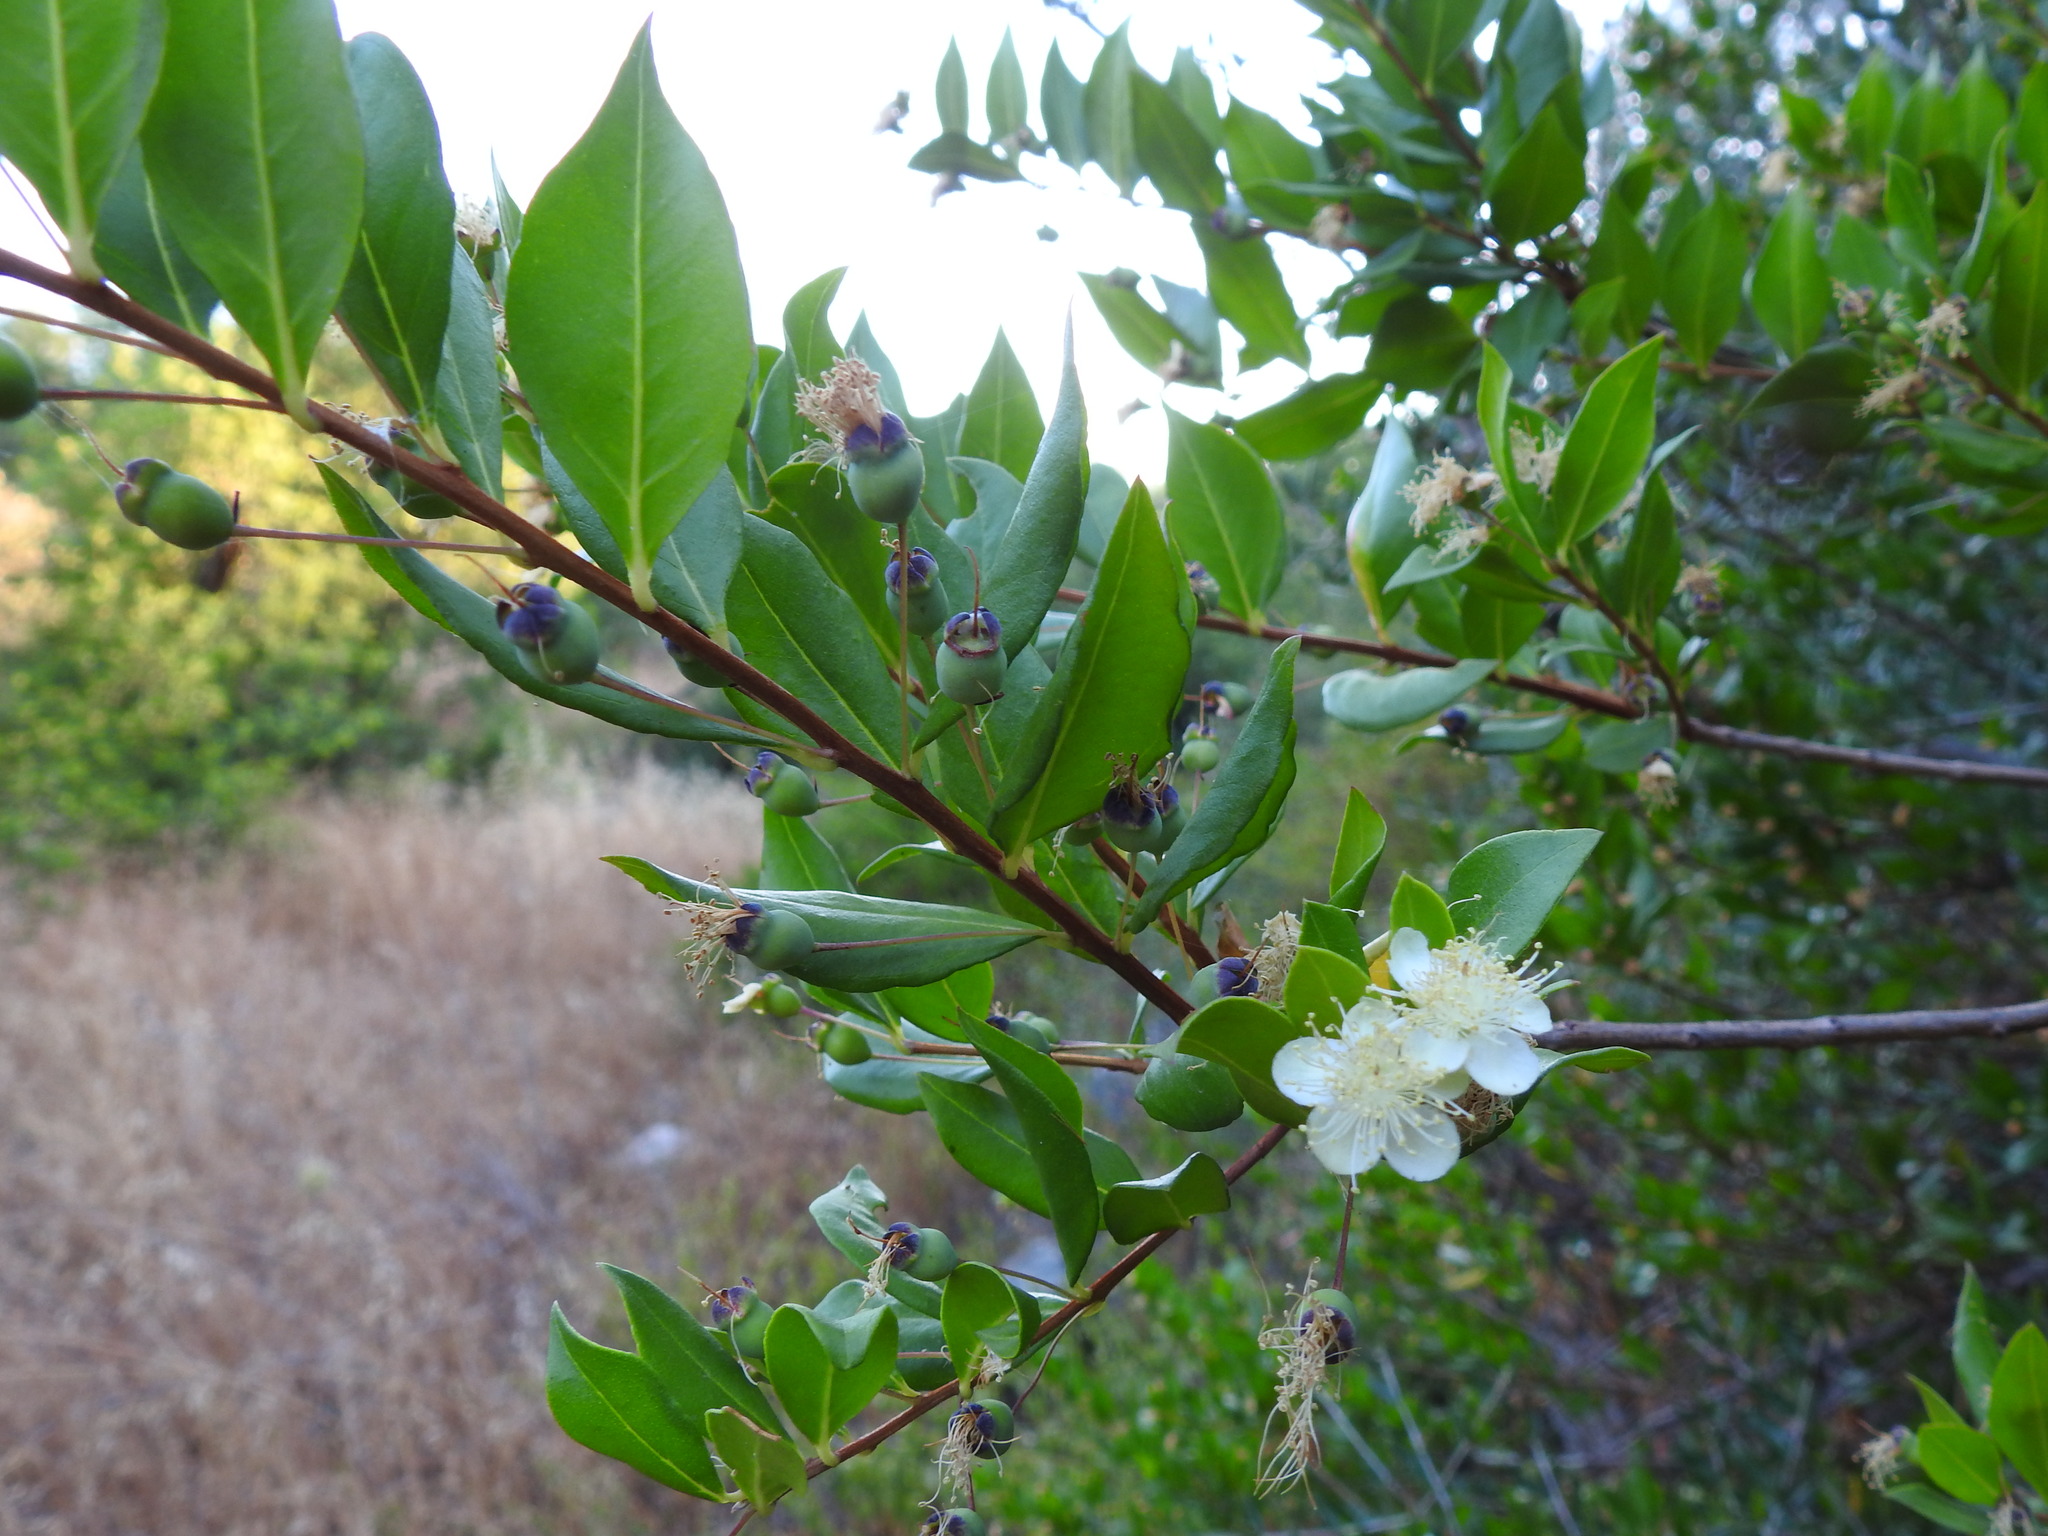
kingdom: Plantae
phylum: Tracheophyta
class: Magnoliopsida
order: Myrtales
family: Myrtaceae
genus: Myrtus
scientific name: Myrtus communis
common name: Myrtle
